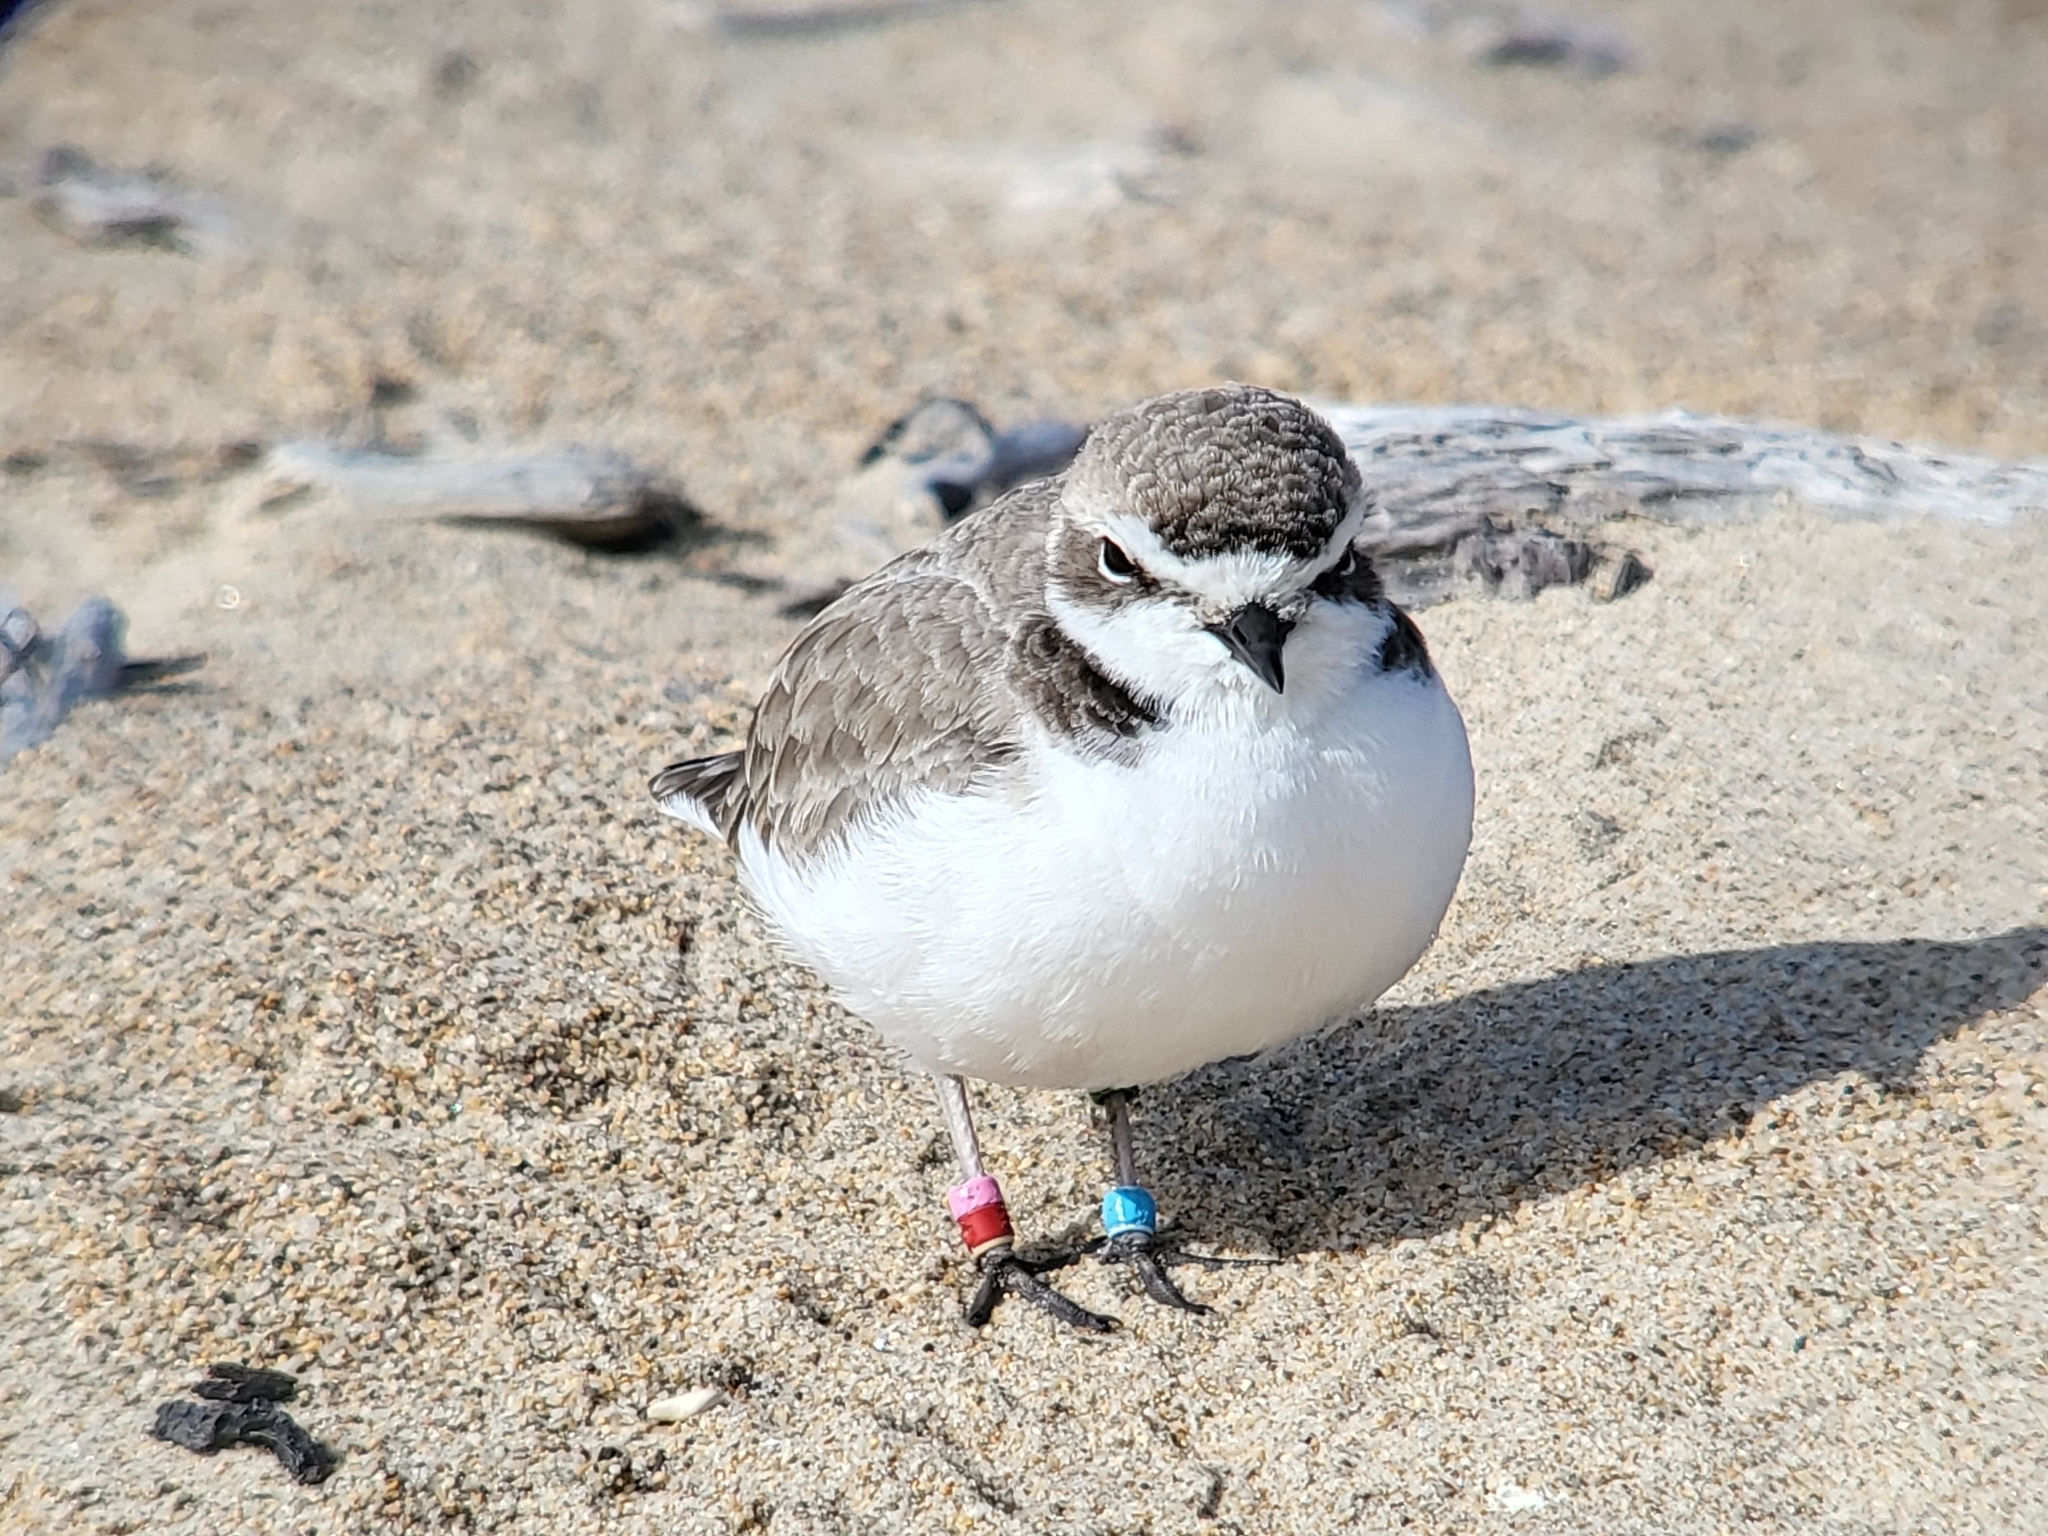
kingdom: Animalia
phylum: Chordata
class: Aves
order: Charadriiformes
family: Charadriidae
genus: Anarhynchus
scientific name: Anarhynchus
